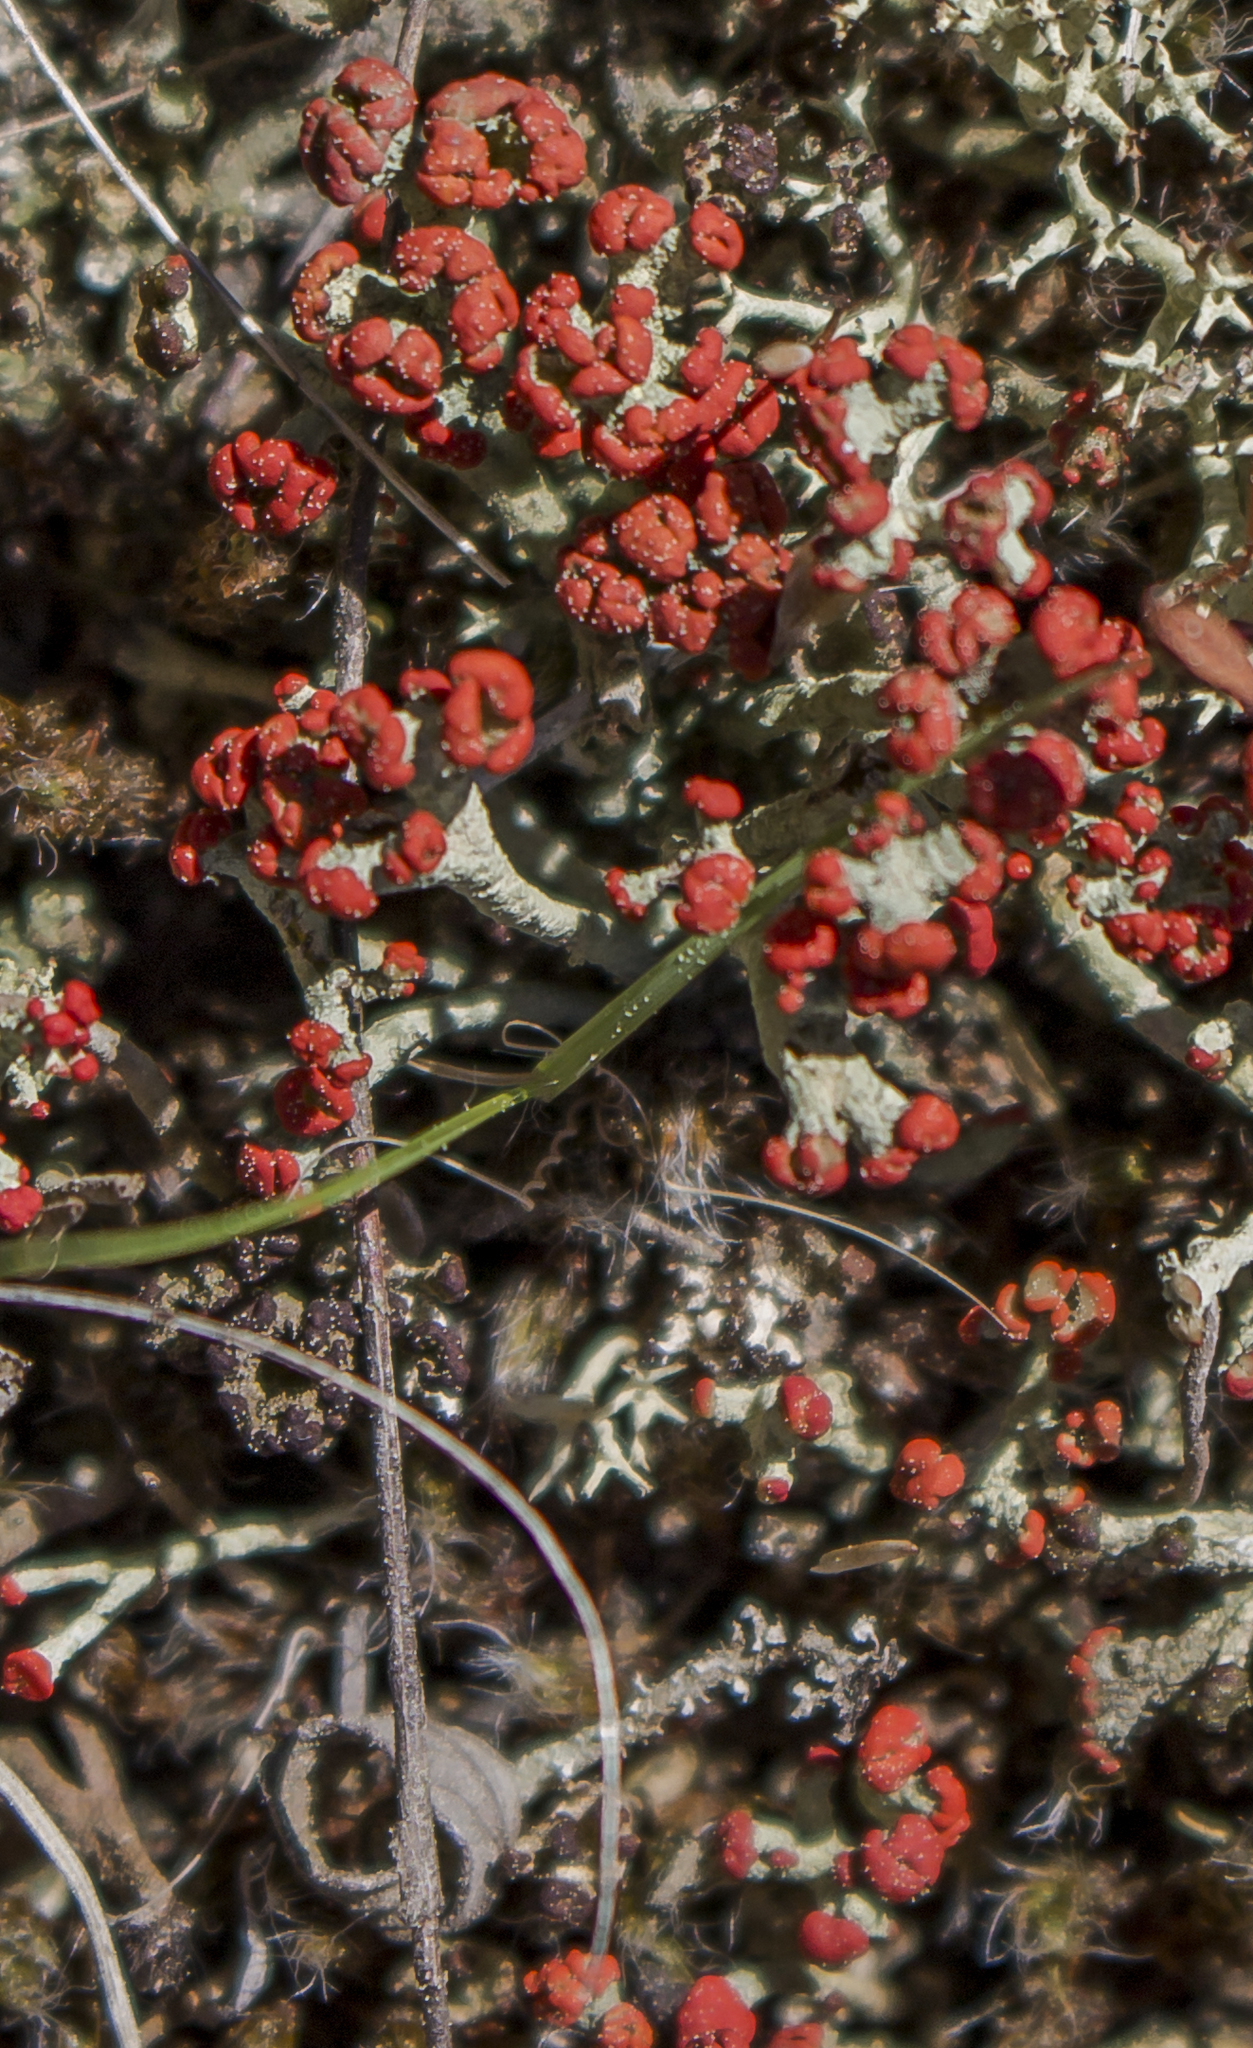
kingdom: Fungi
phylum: Ascomycota
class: Lecanoromycetes
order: Lecanorales
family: Cladoniaceae
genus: Cladonia
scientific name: Cladonia cristatella
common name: British soldier lichen
